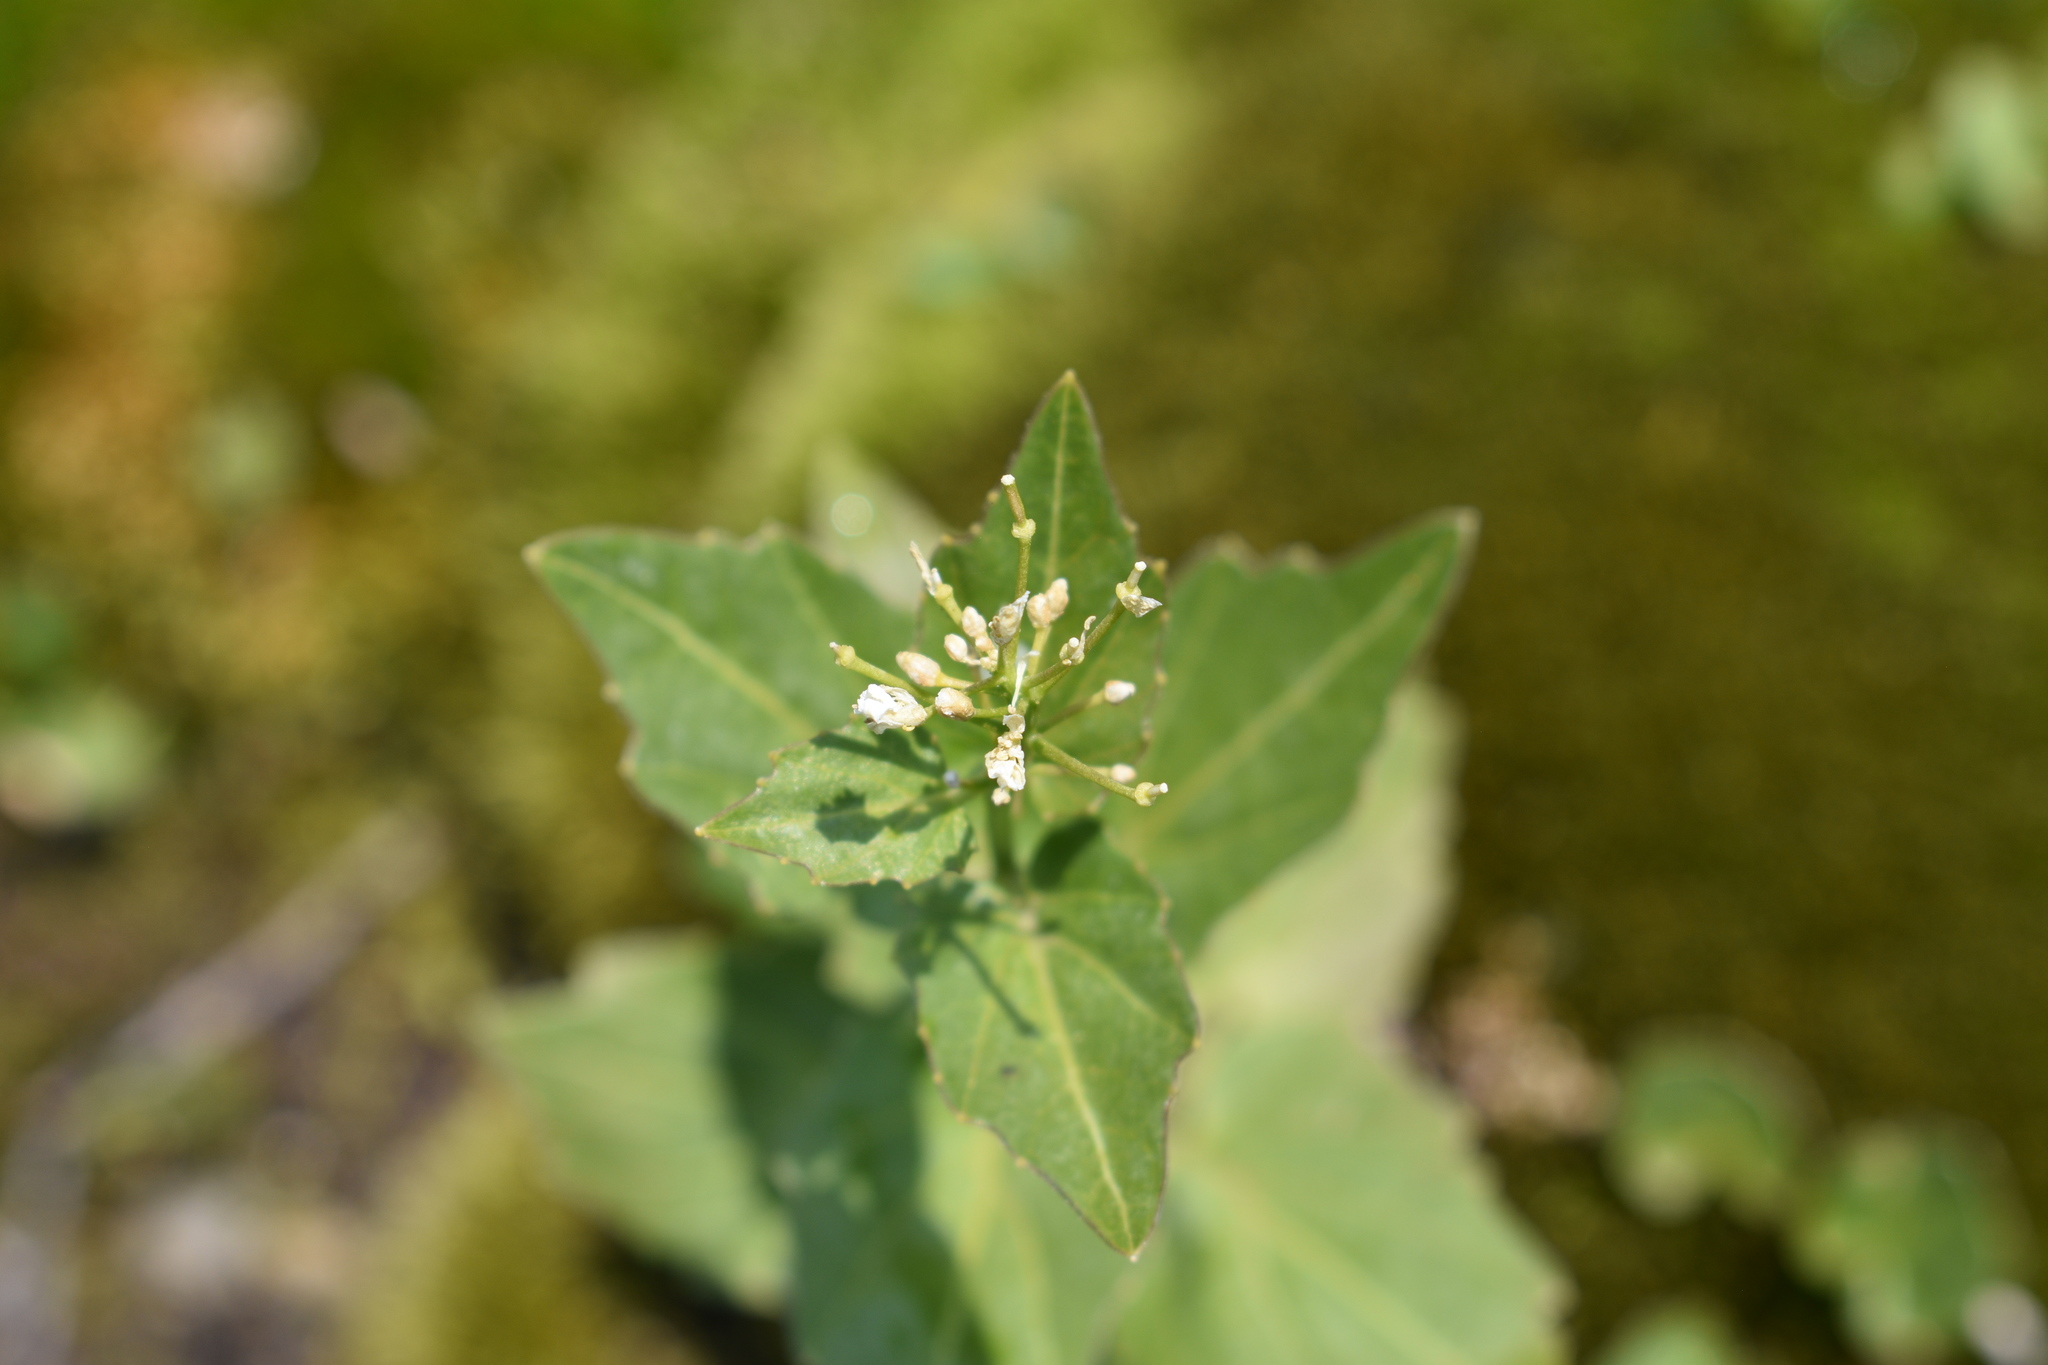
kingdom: Plantae
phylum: Tracheophyta
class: Magnoliopsida
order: Brassicales
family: Brassicaceae
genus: Cardamine
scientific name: Cardamine cordifolia
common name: Heart-leaf bittercress
